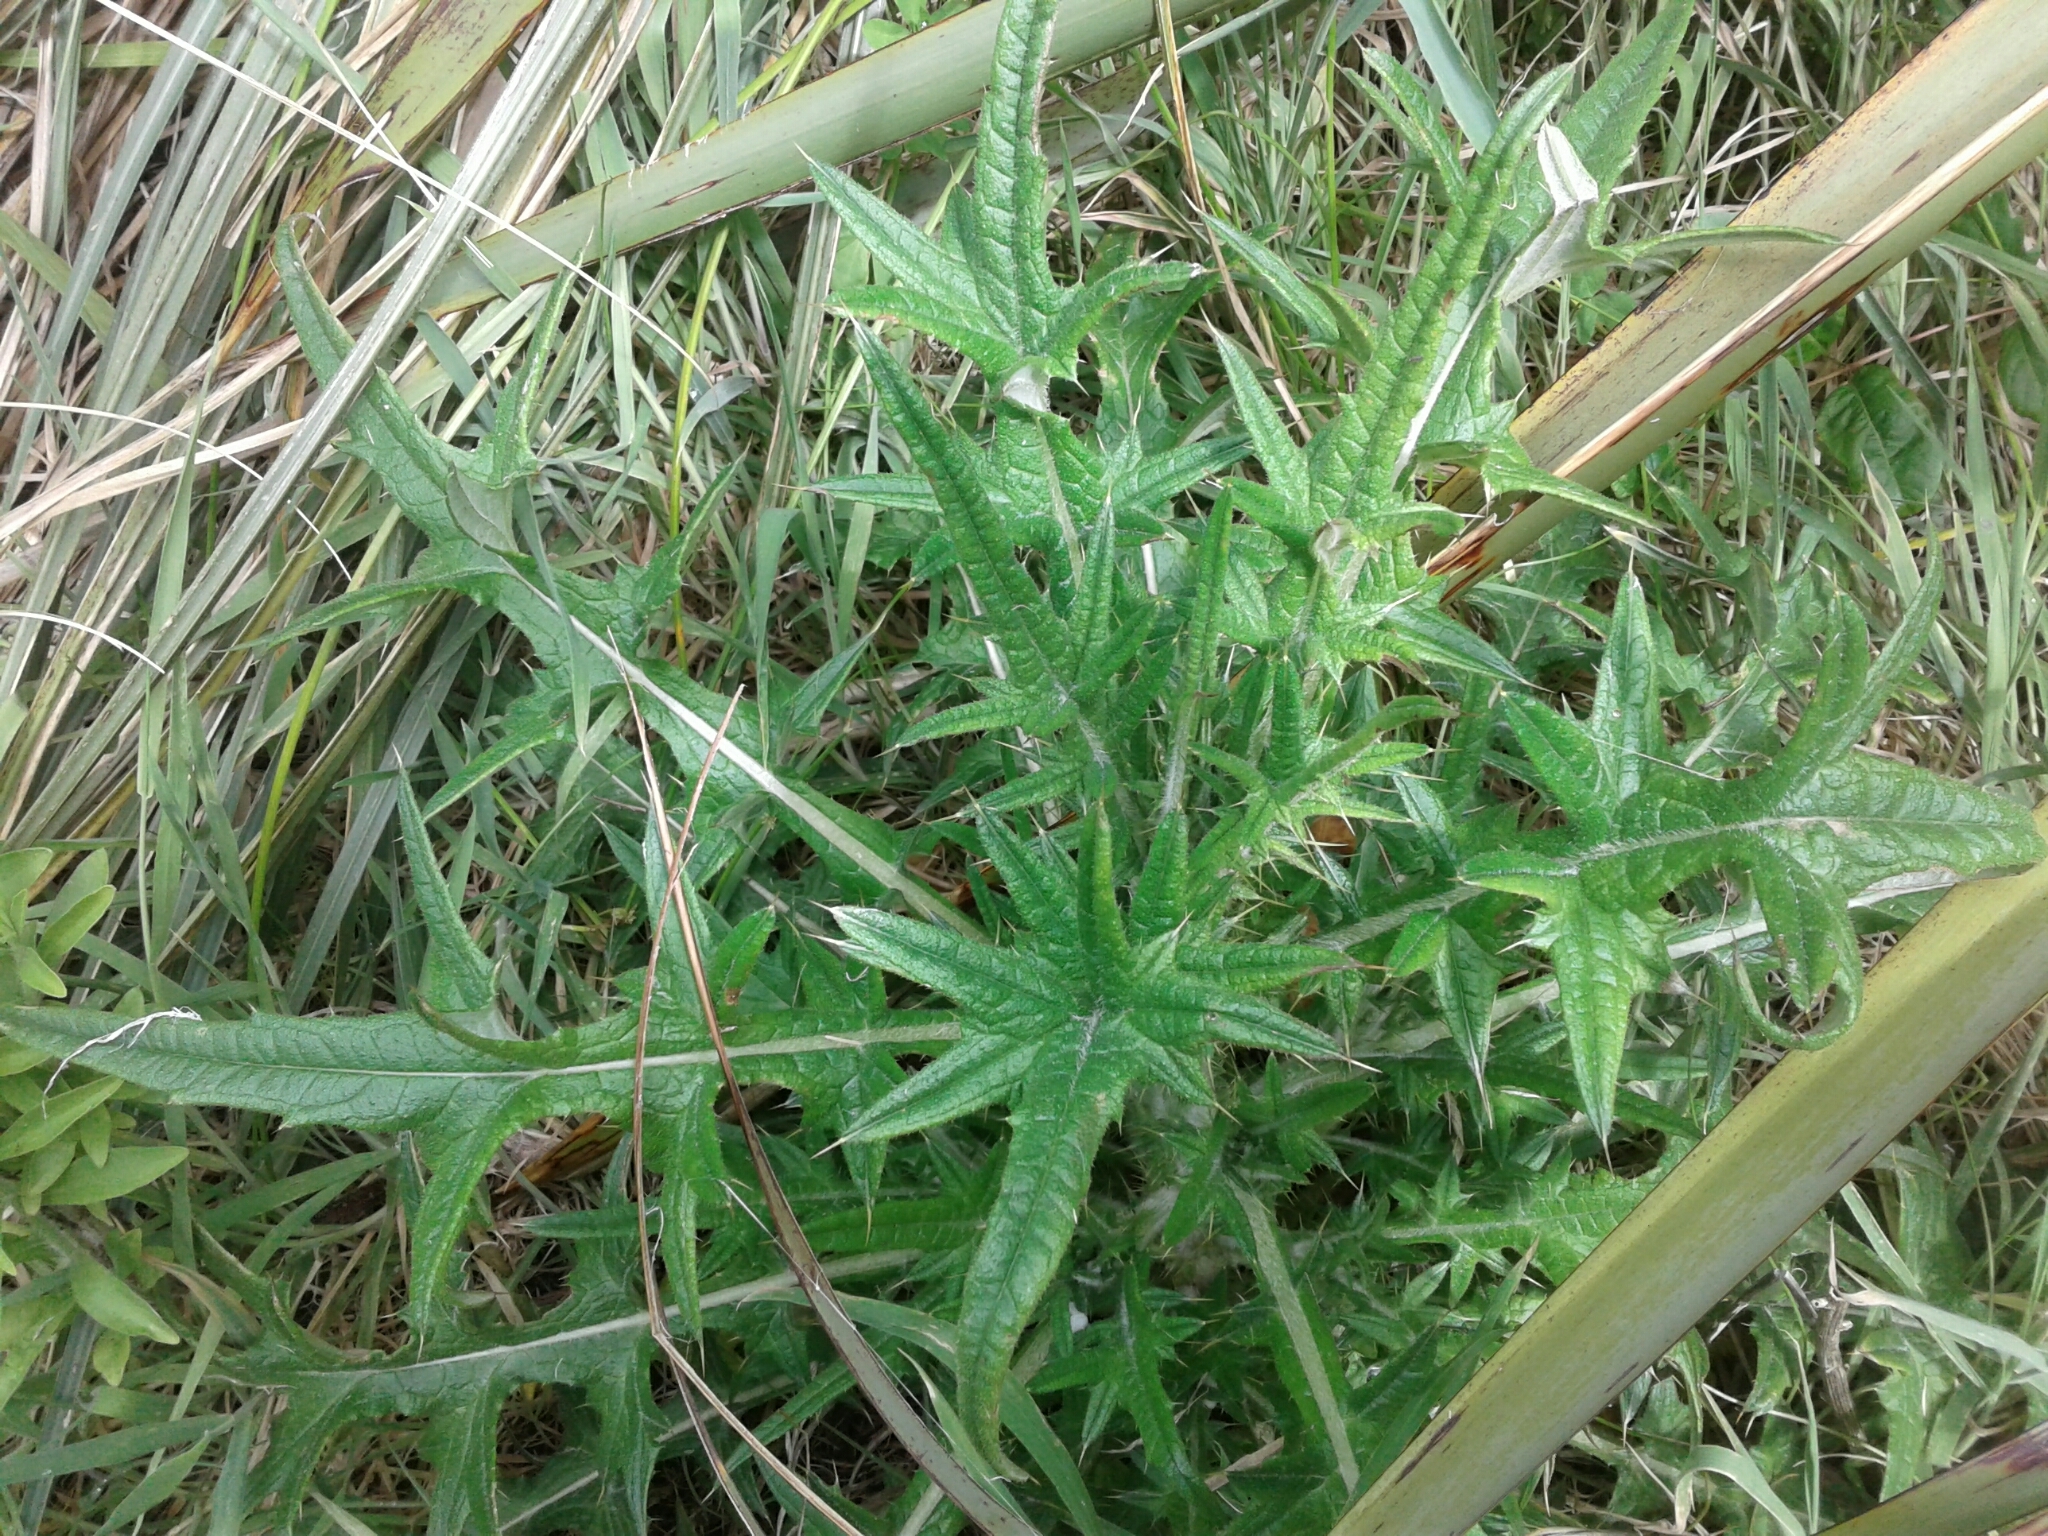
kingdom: Plantae
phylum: Tracheophyta
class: Magnoliopsida
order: Asterales
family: Asteraceae
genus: Cirsium
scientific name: Cirsium vulgare
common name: Bull thistle
